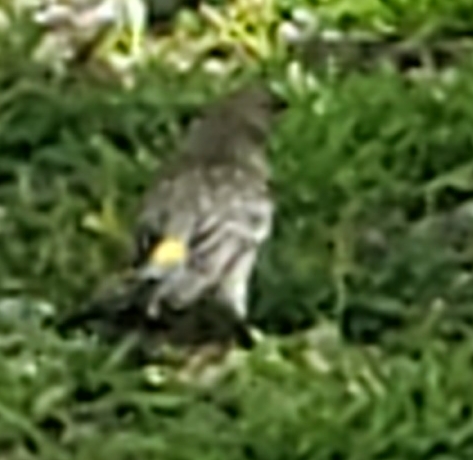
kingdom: Animalia
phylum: Chordata
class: Aves
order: Passeriformes
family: Parulidae
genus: Setophaga
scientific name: Setophaga coronata
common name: Myrtle warbler
